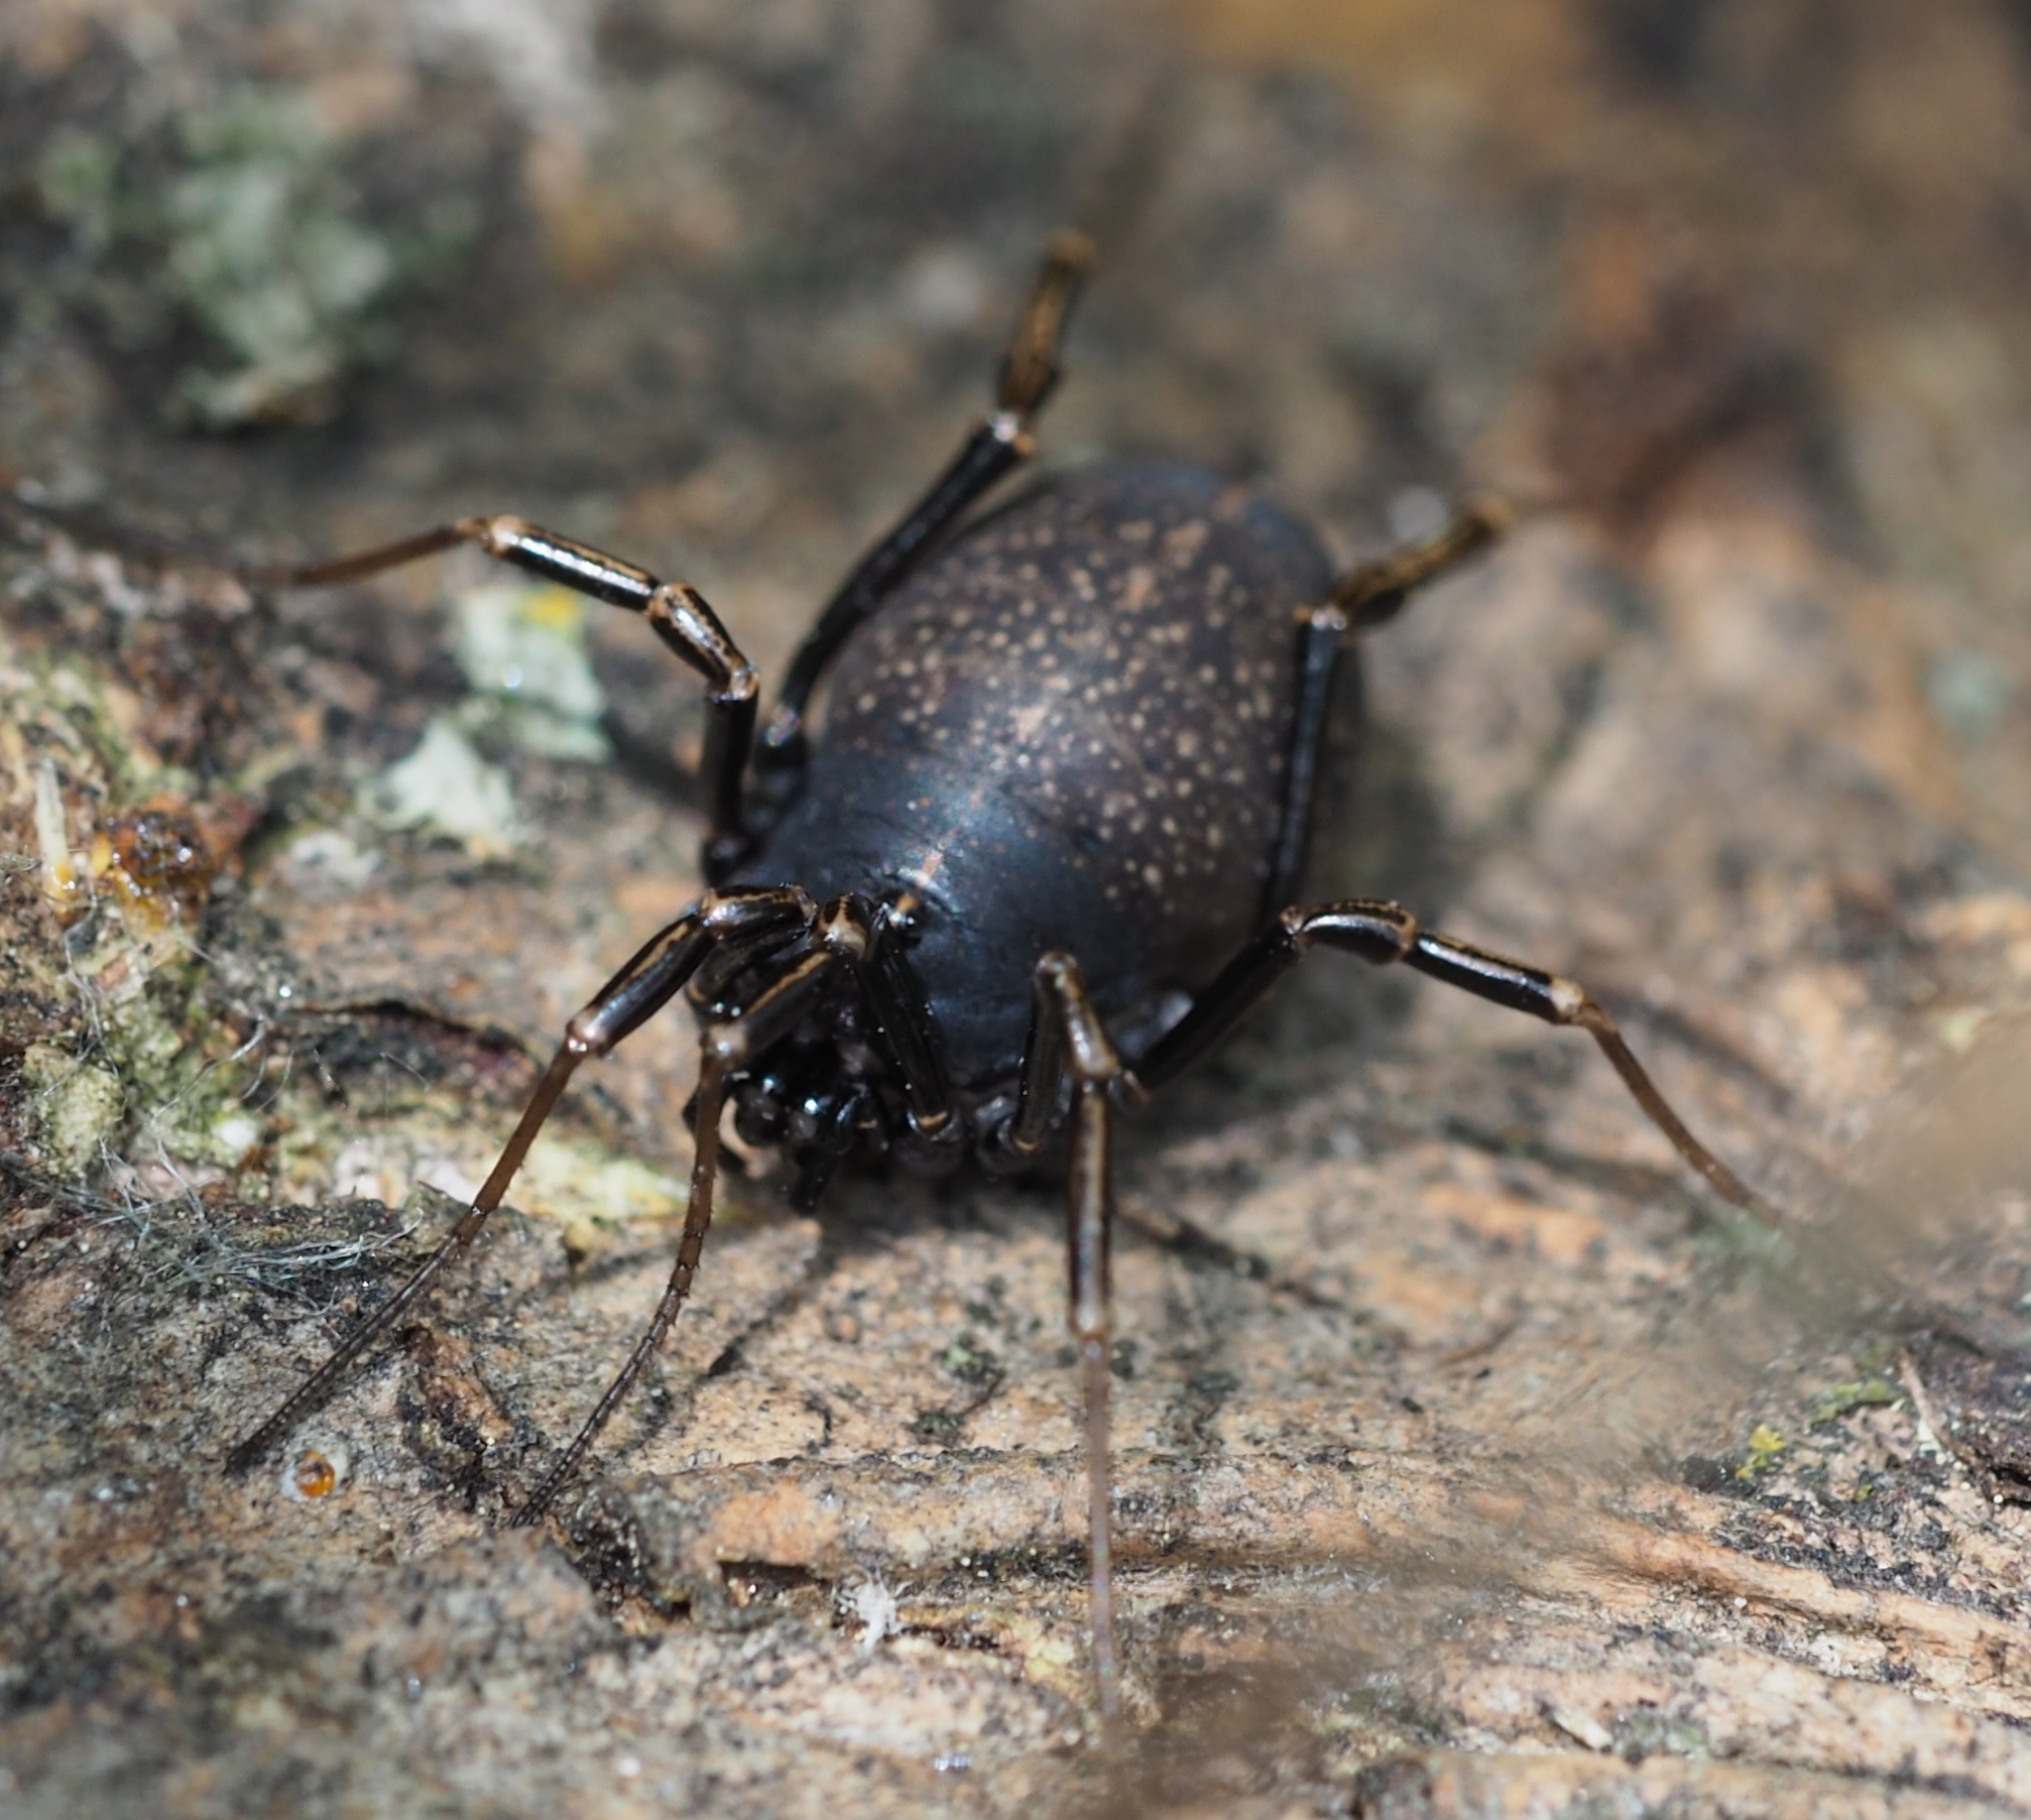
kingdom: Animalia
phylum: Arthropoda
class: Arachnida
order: Opiliones
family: Phalangiidae
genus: Egaenus
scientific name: Egaenus convexus
